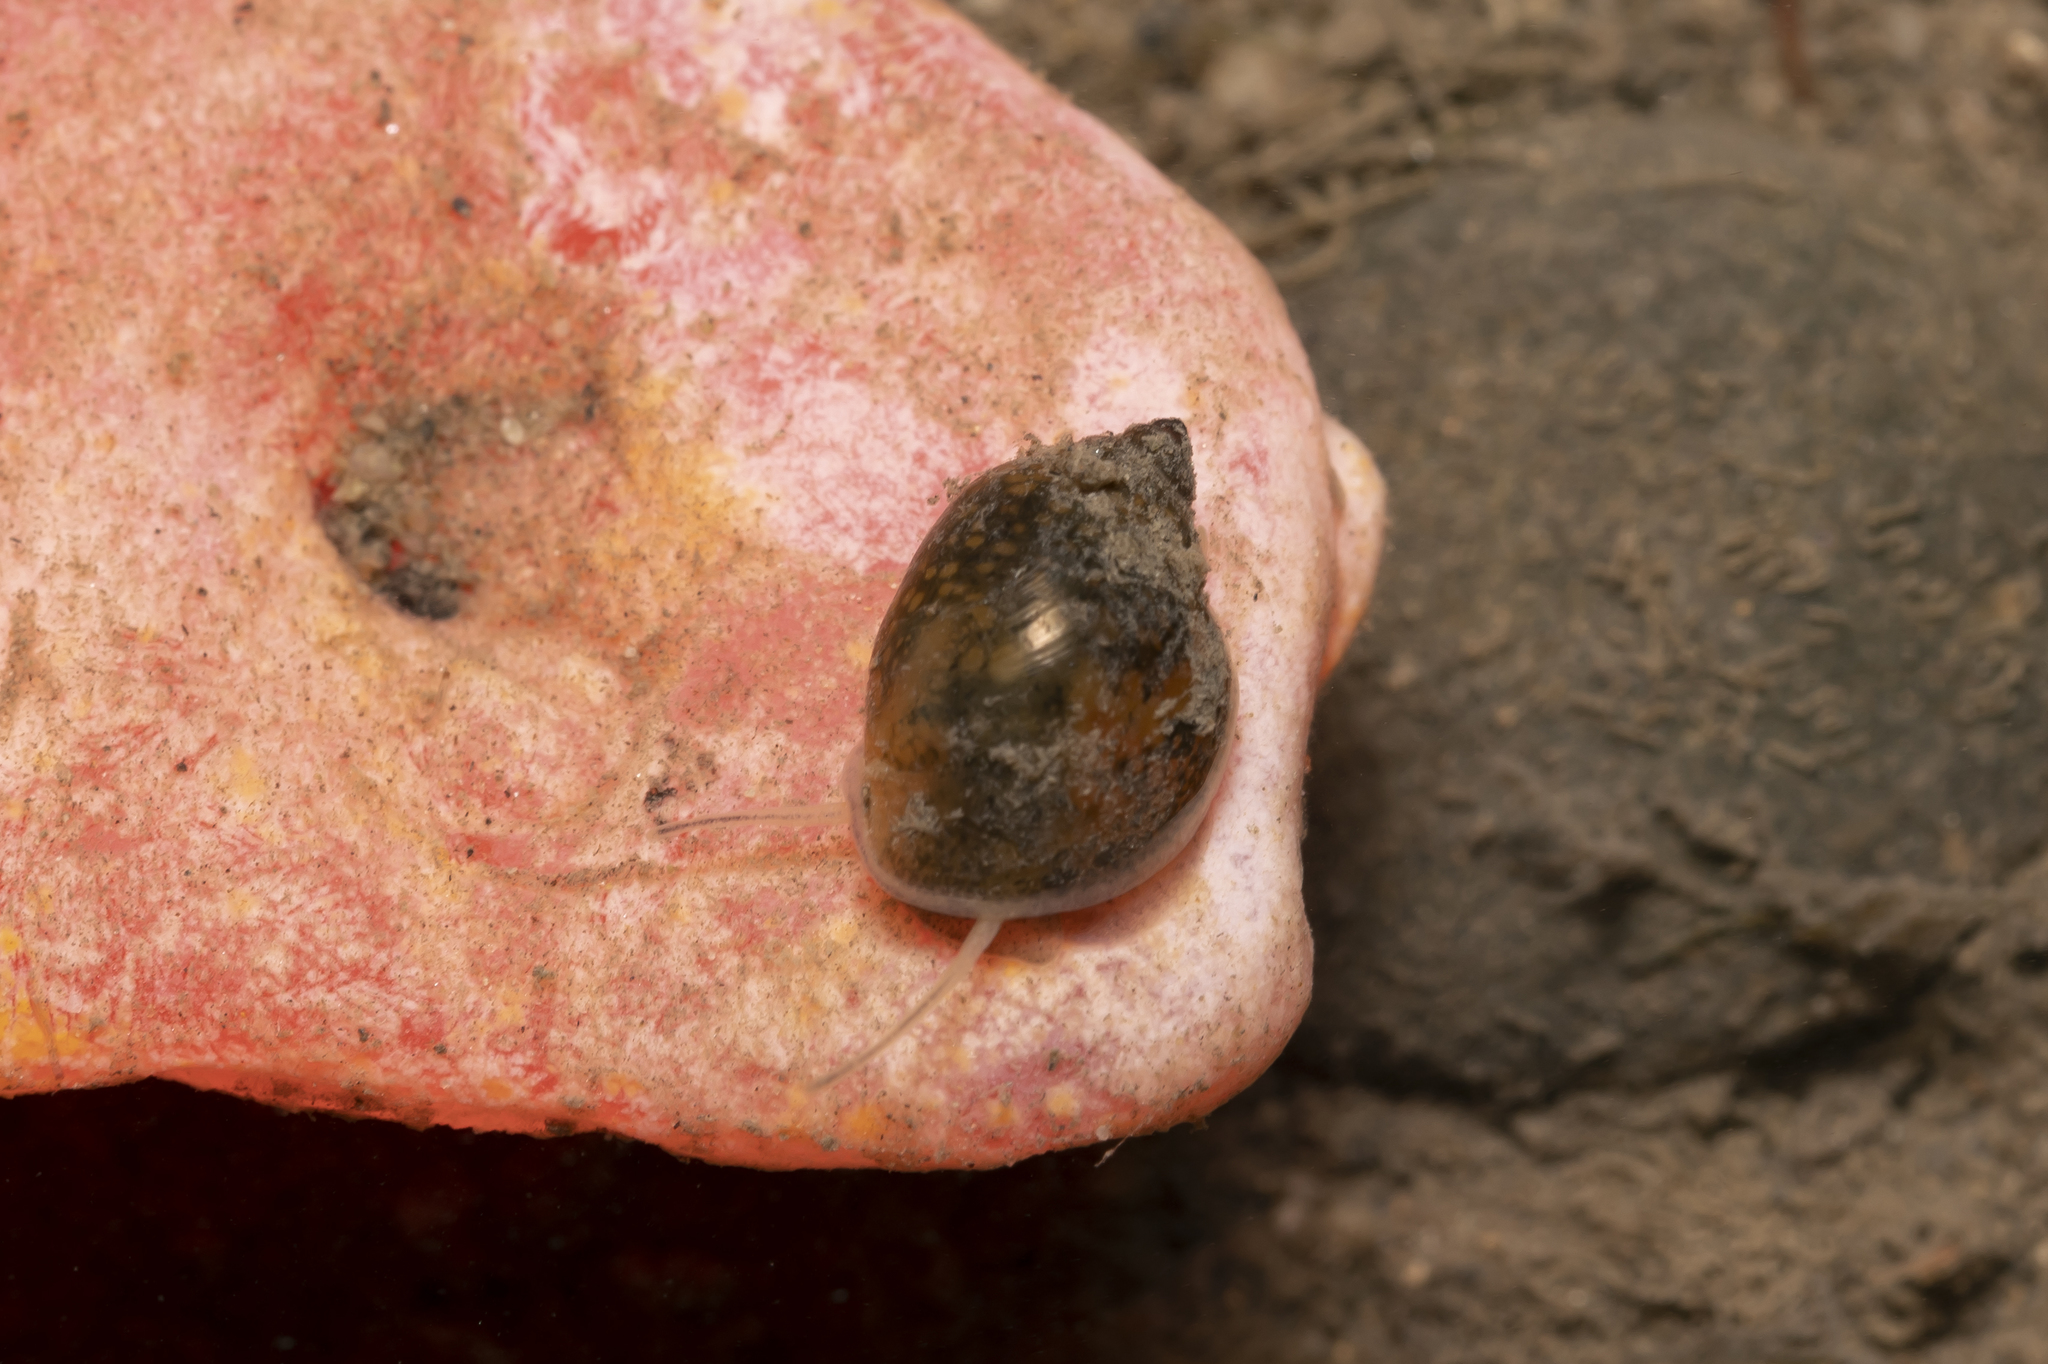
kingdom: Animalia
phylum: Mollusca
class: Gastropoda
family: Physidae
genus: Physella
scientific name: Physella acuta
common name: European physa
